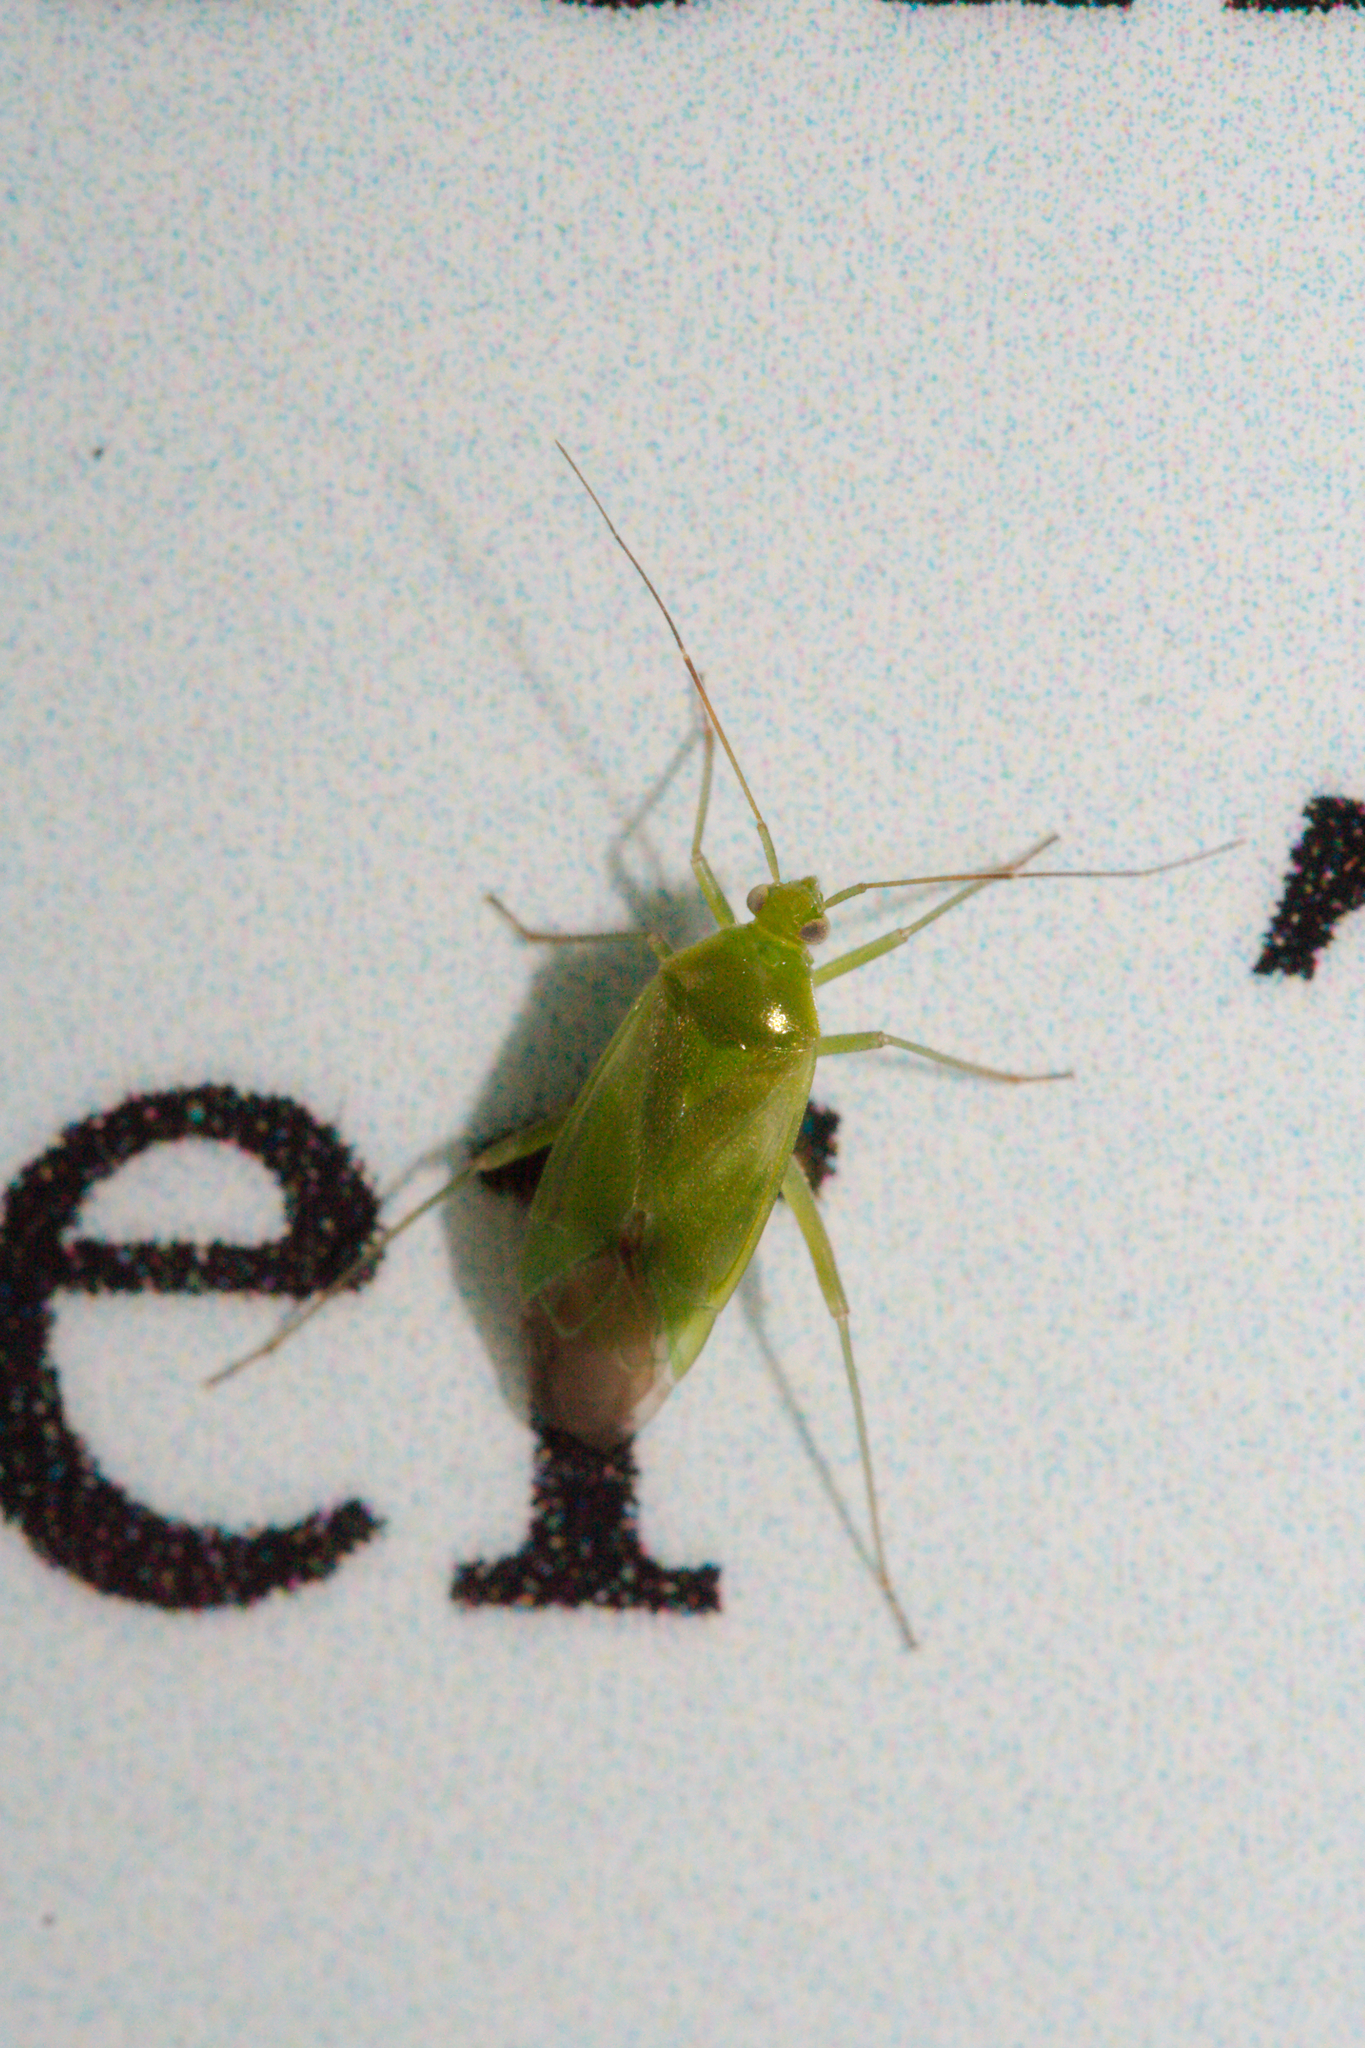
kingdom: Animalia
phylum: Arthropoda
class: Insecta
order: Hemiptera
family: Miridae
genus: Lygocoris
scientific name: Lygocoris pabulinus
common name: Common green capsid
